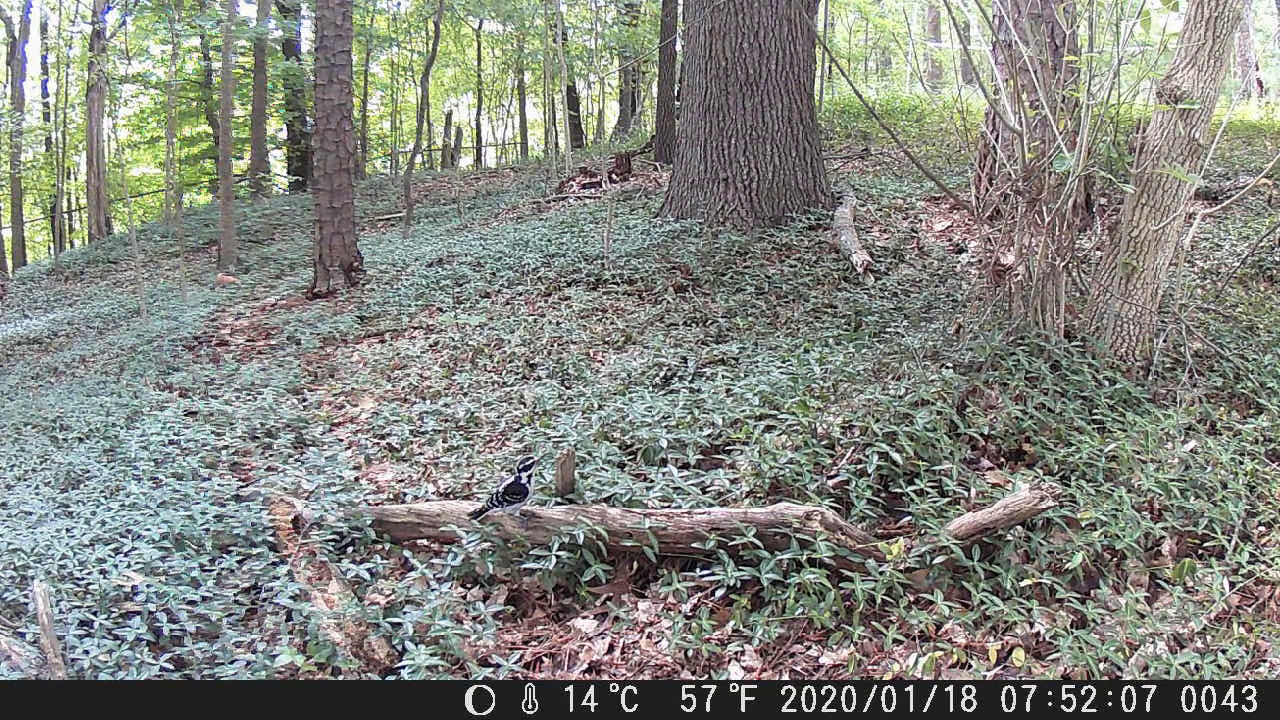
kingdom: Animalia
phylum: Chordata
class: Aves
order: Piciformes
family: Picidae
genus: Leuconotopicus
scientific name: Leuconotopicus villosus
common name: Hairy woodpecker
